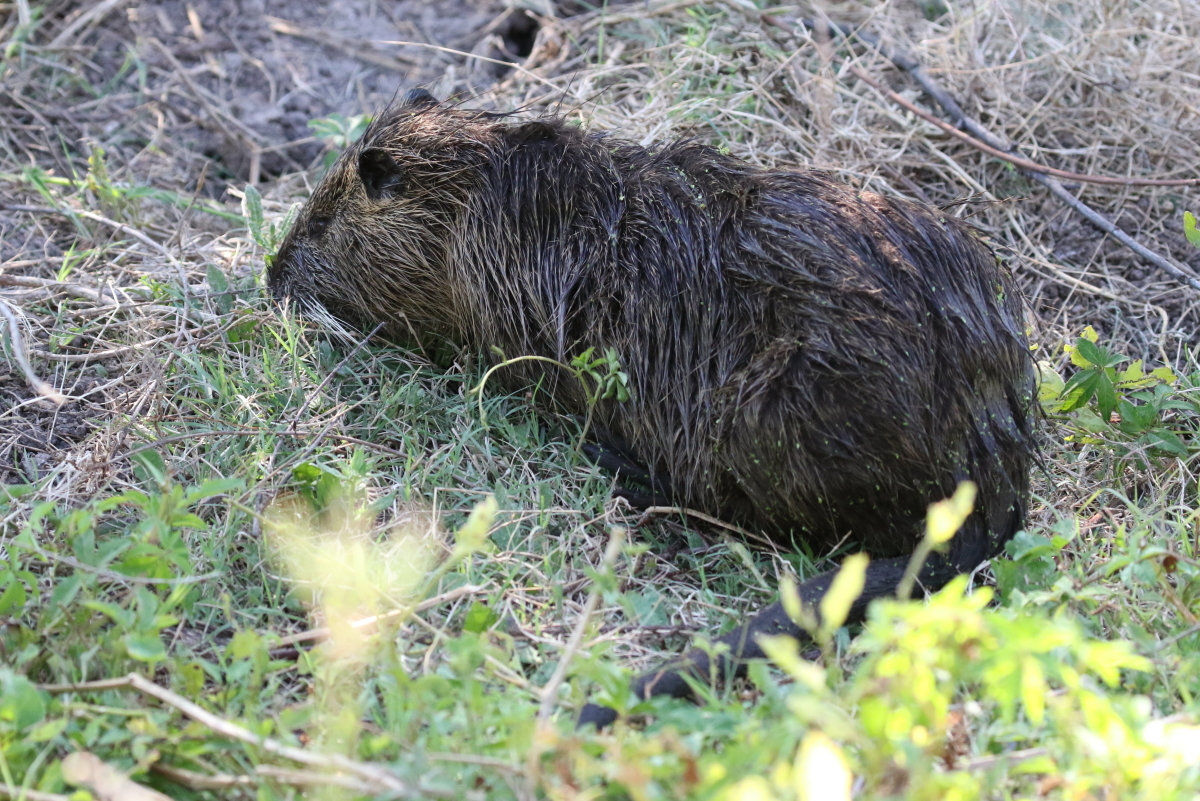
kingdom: Animalia
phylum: Chordata
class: Mammalia
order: Rodentia
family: Myocastoridae
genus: Myocastor
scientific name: Myocastor coypus
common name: Coypu
